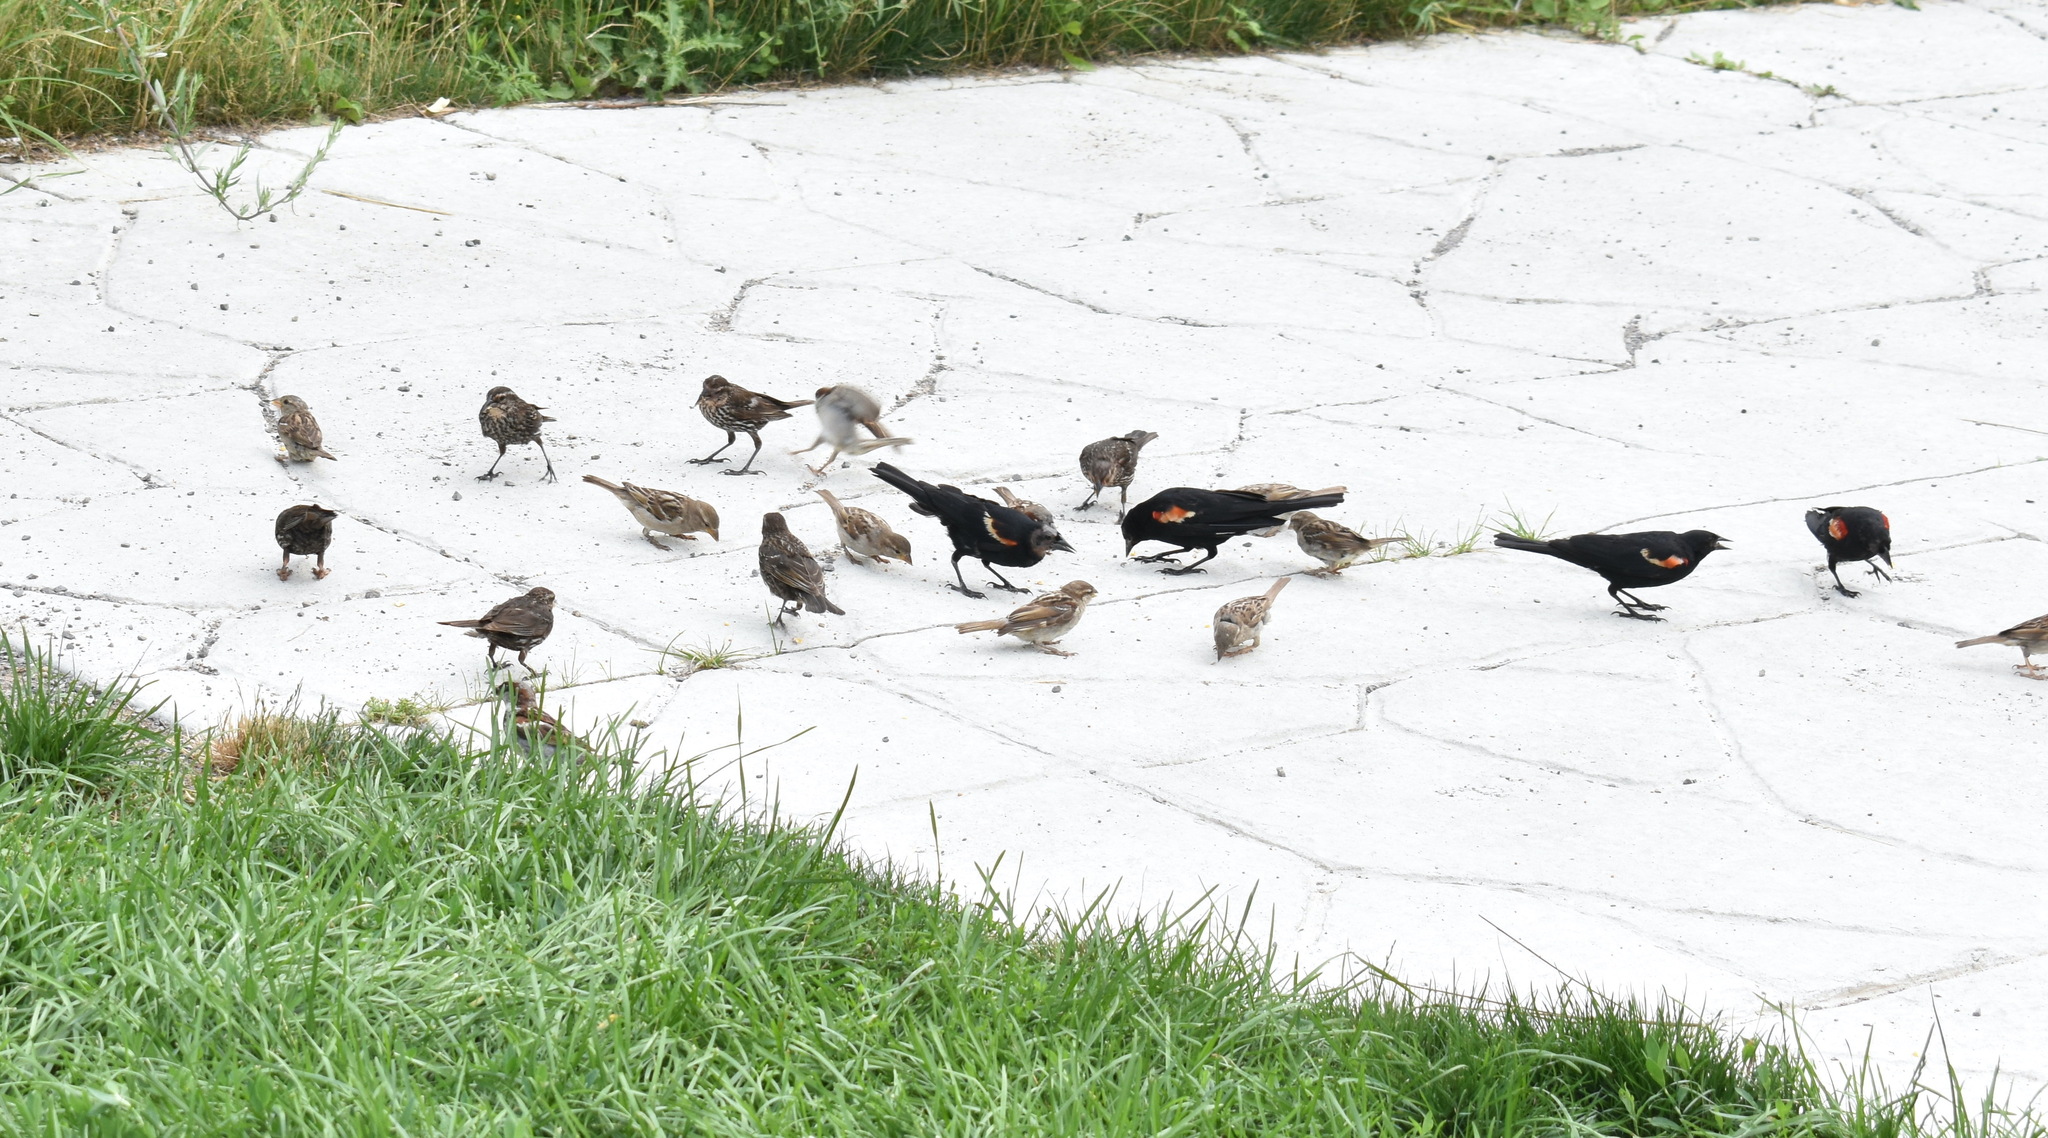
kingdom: Animalia
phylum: Chordata
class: Aves
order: Passeriformes
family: Icteridae
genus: Agelaius
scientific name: Agelaius phoeniceus
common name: Red-winged blackbird
